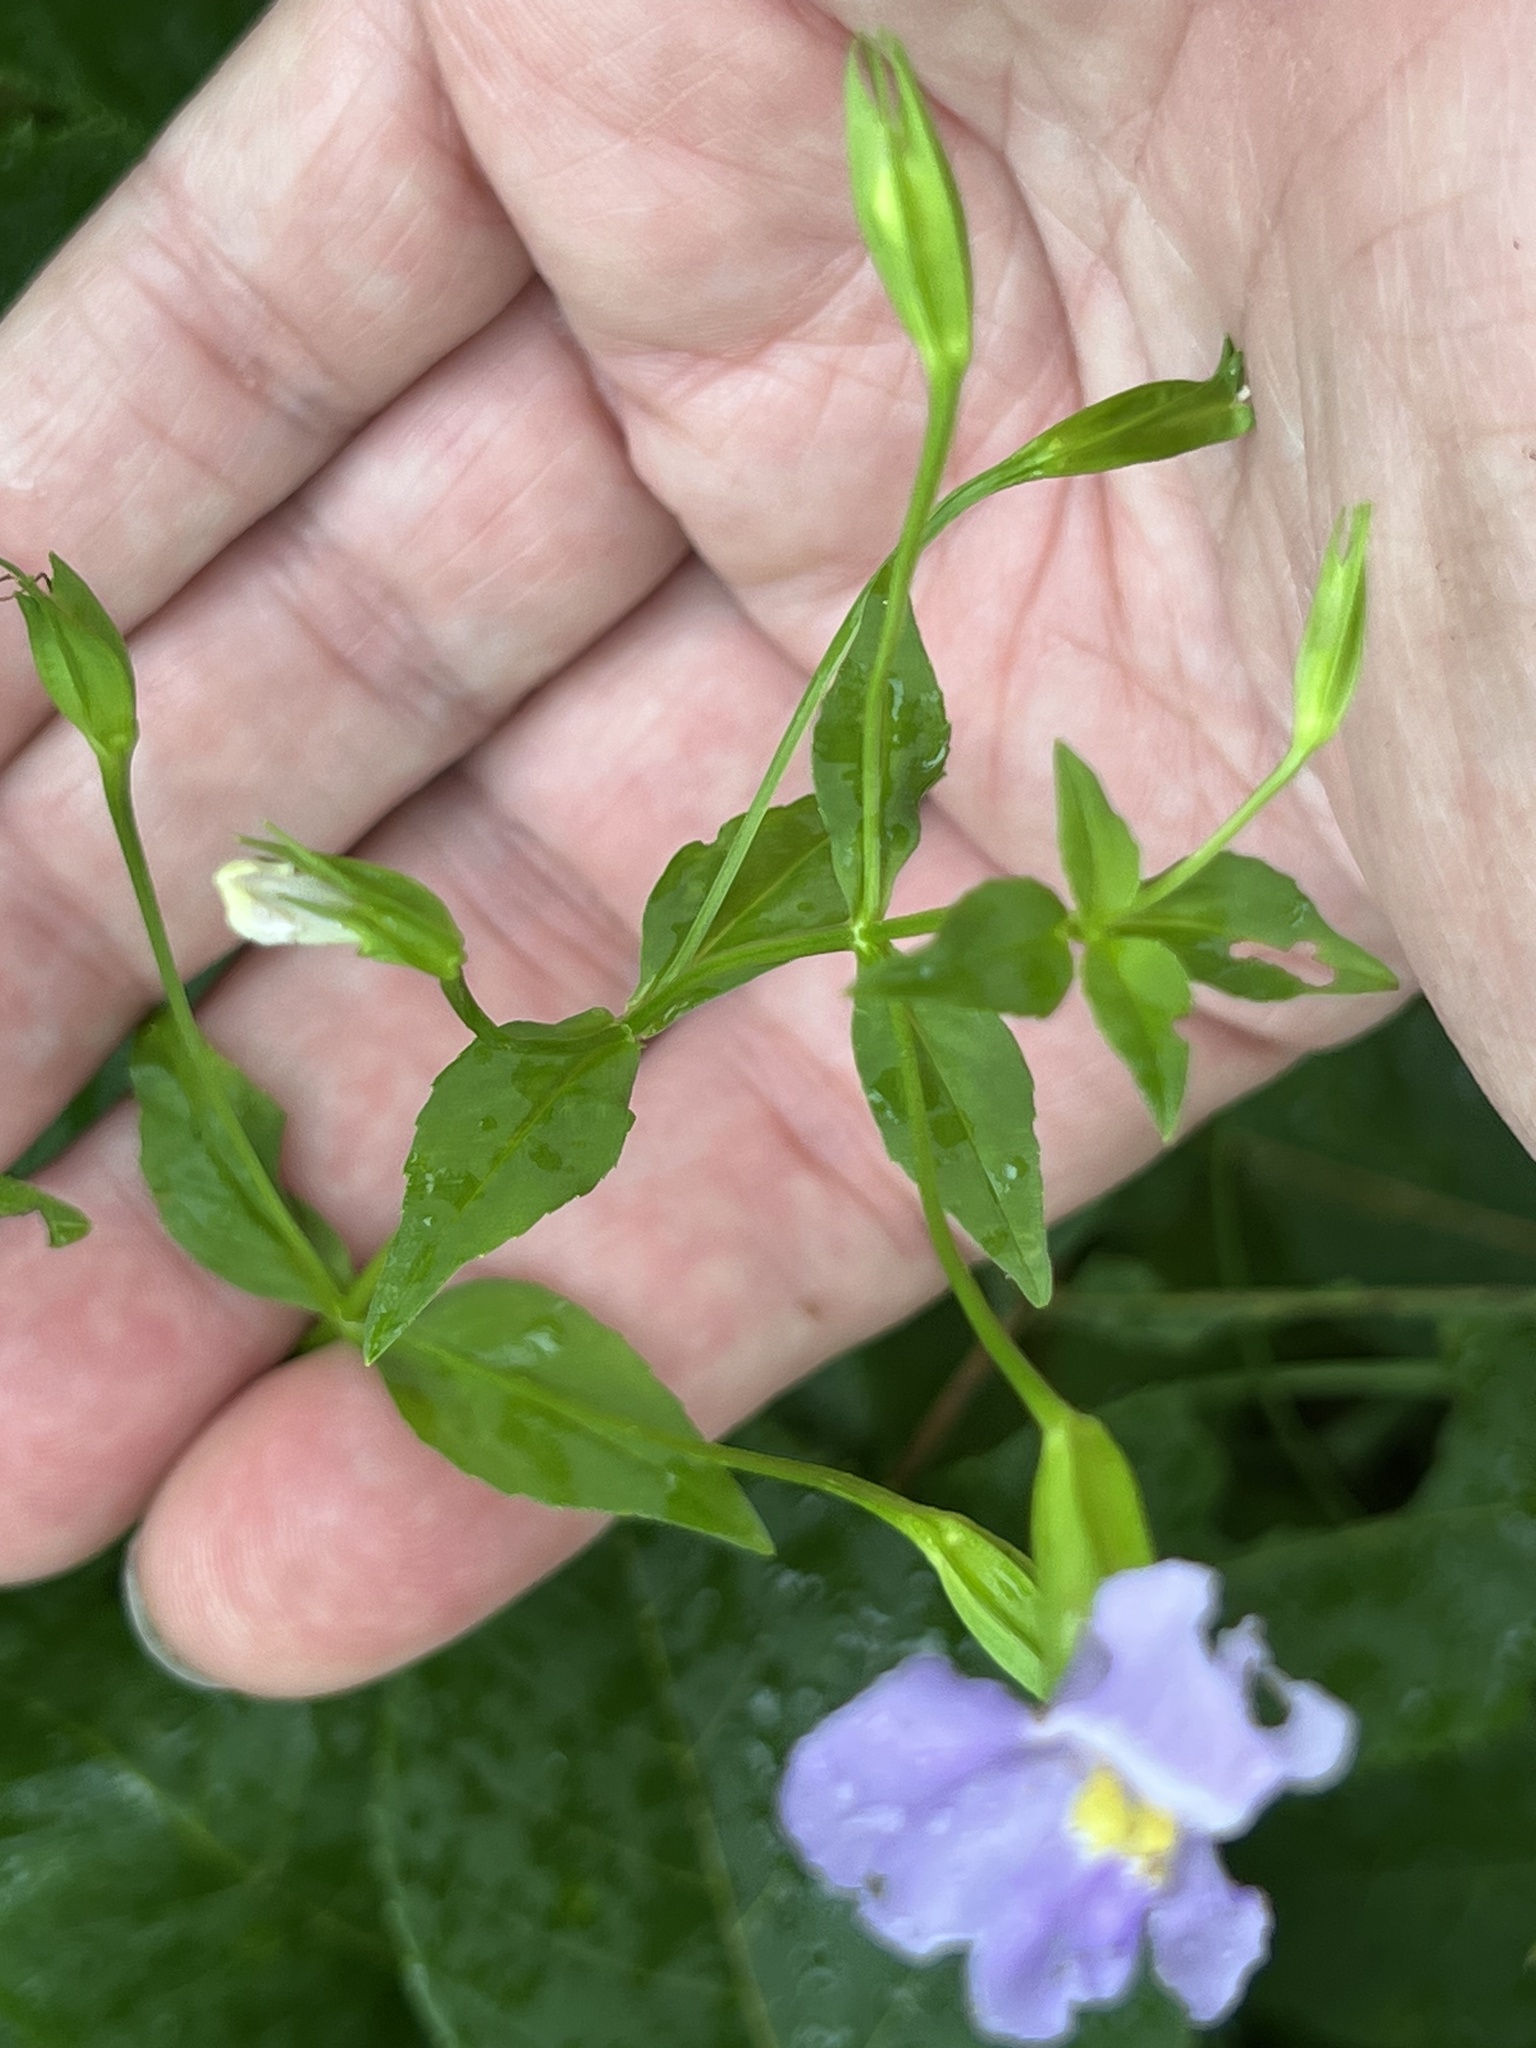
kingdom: Plantae
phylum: Tracheophyta
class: Magnoliopsida
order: Lamiales
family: Phrymaceae
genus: Mimulus
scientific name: Mimulus ringens
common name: Allegheny monkeyflower
